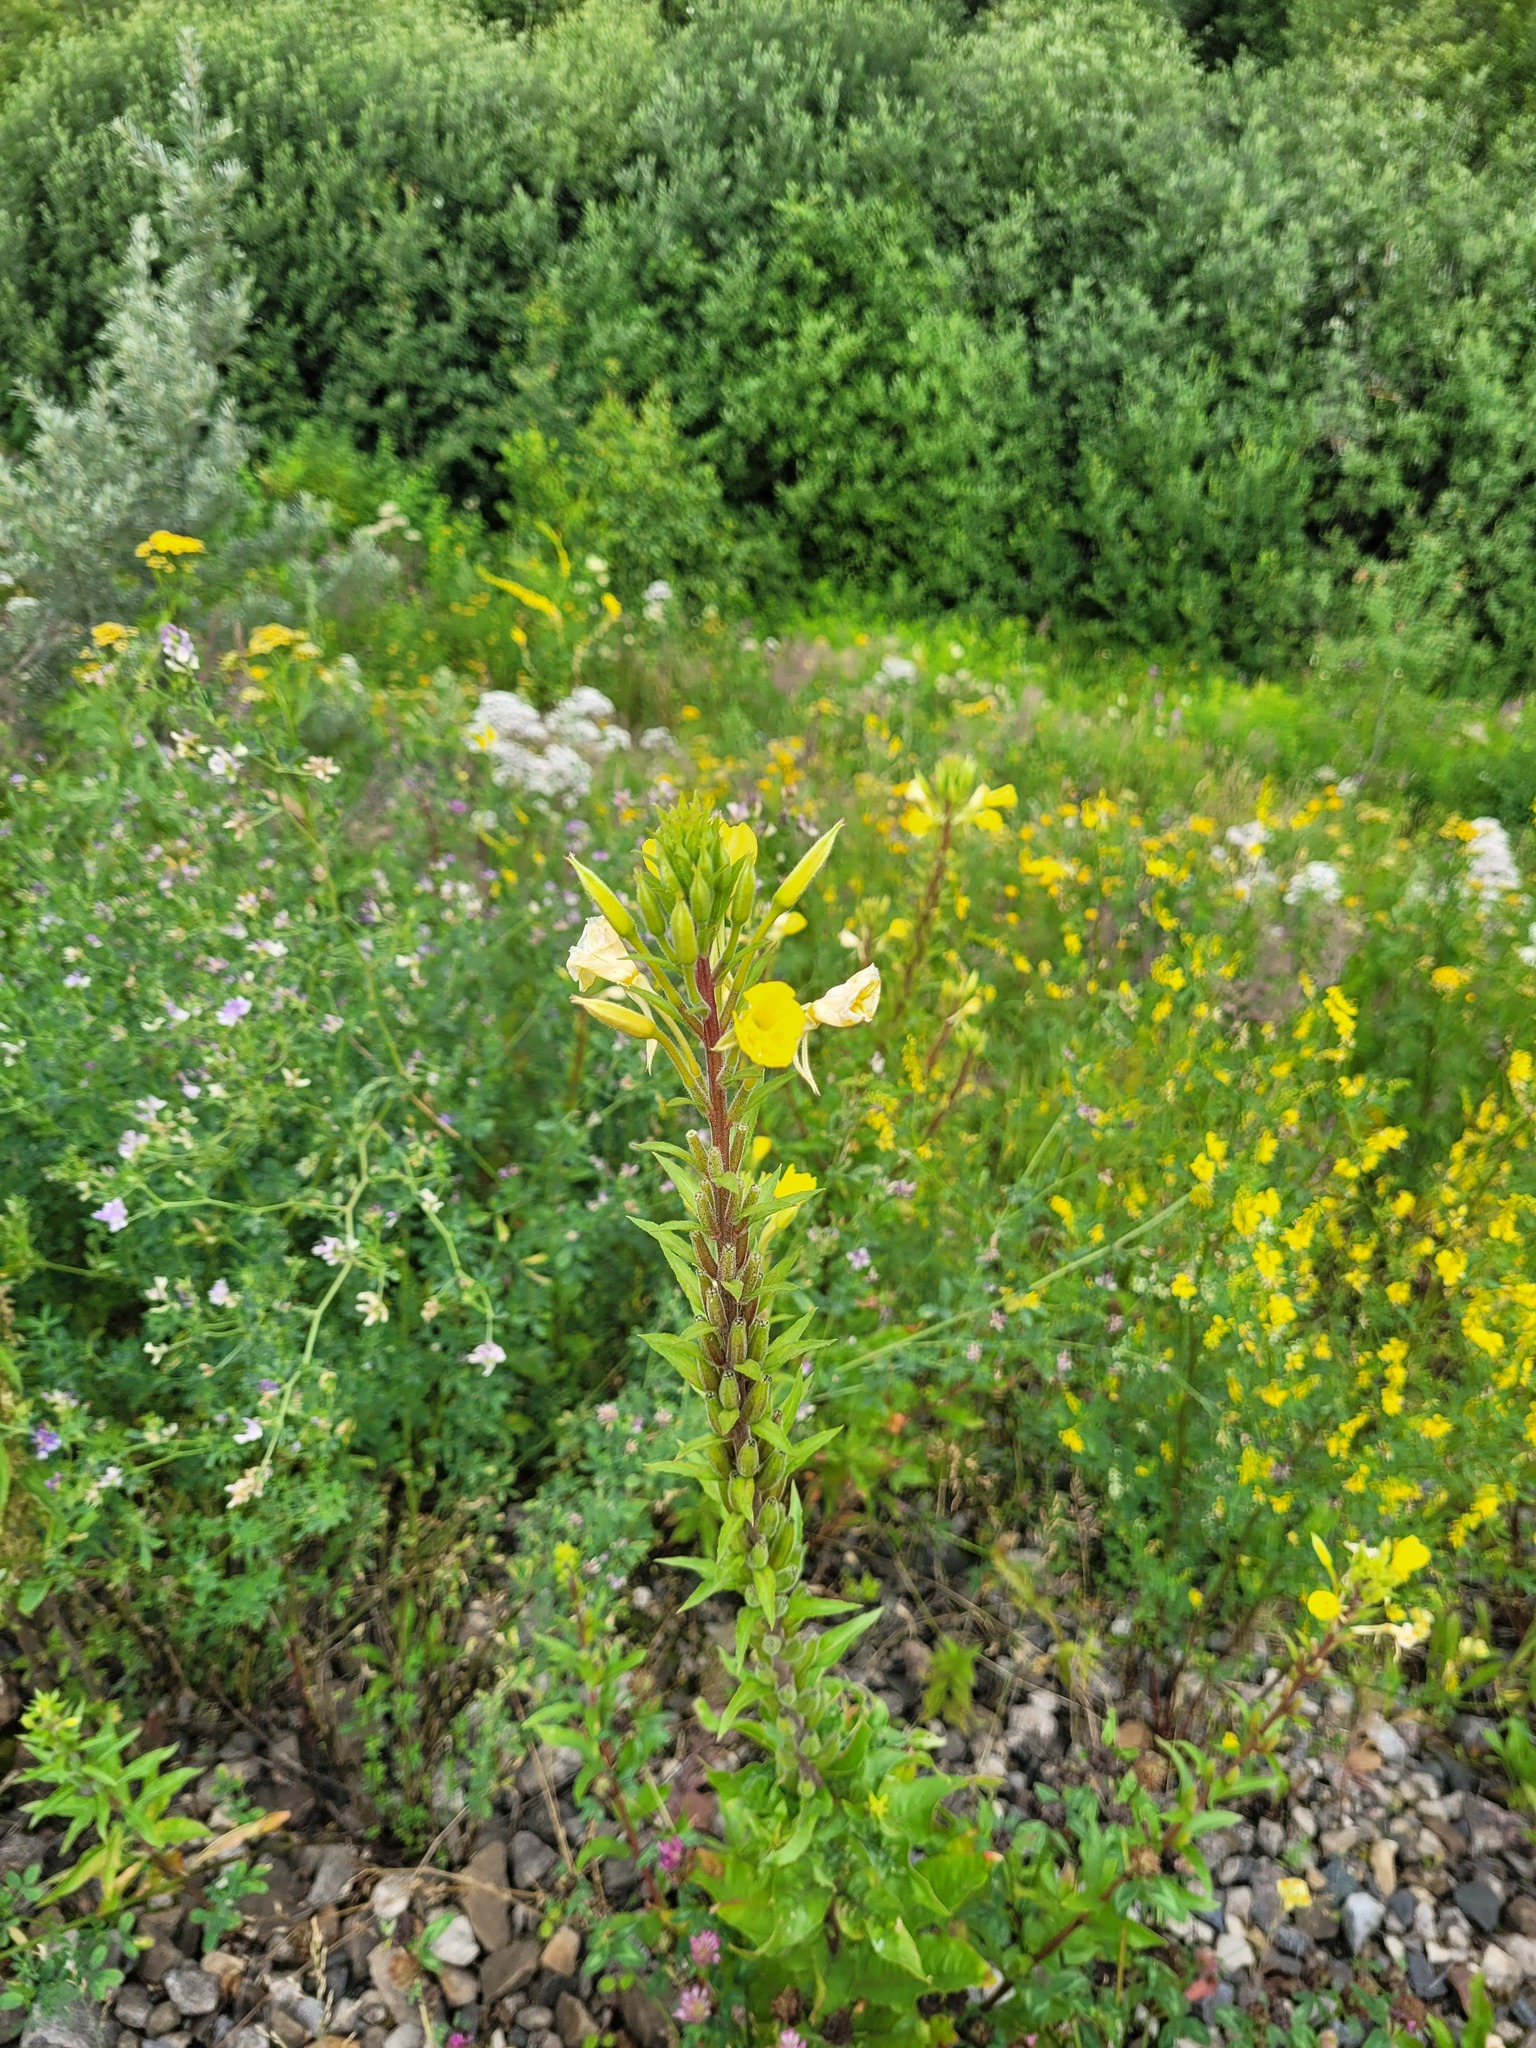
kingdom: Plantae
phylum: Tracheophyta
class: Magnoliopsida
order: Myrtales
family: Onagraceae
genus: Oenothera
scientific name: Oenothera rubricaulis
